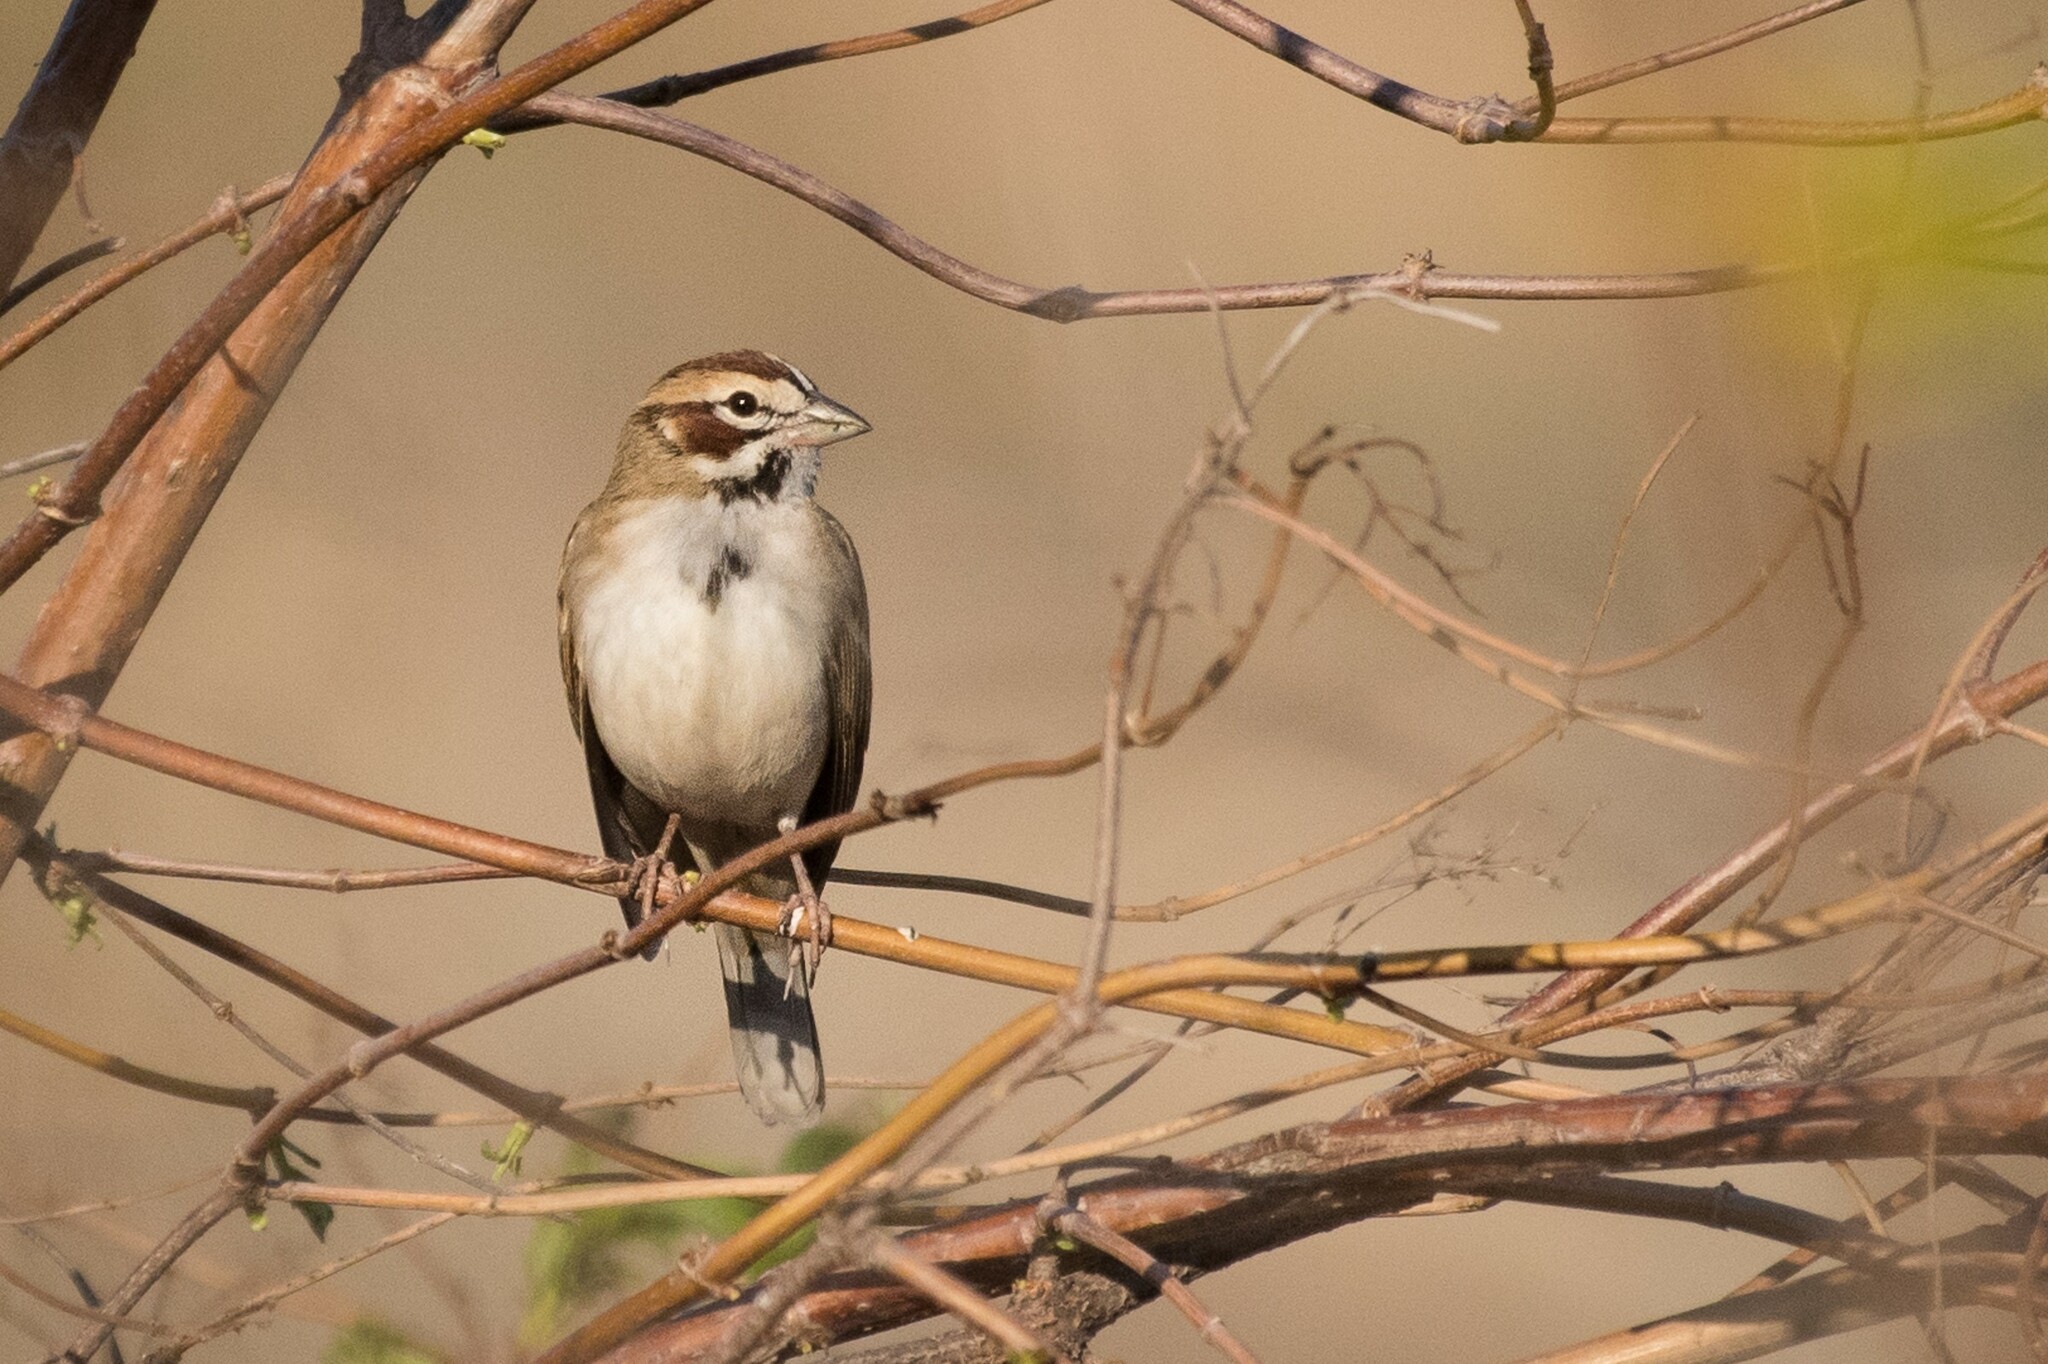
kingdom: Animalia
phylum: Chordata
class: Aves
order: Passeriformes
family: Passerellidae
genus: Chondestes
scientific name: Chondestes grammacus
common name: Lark sparrow
